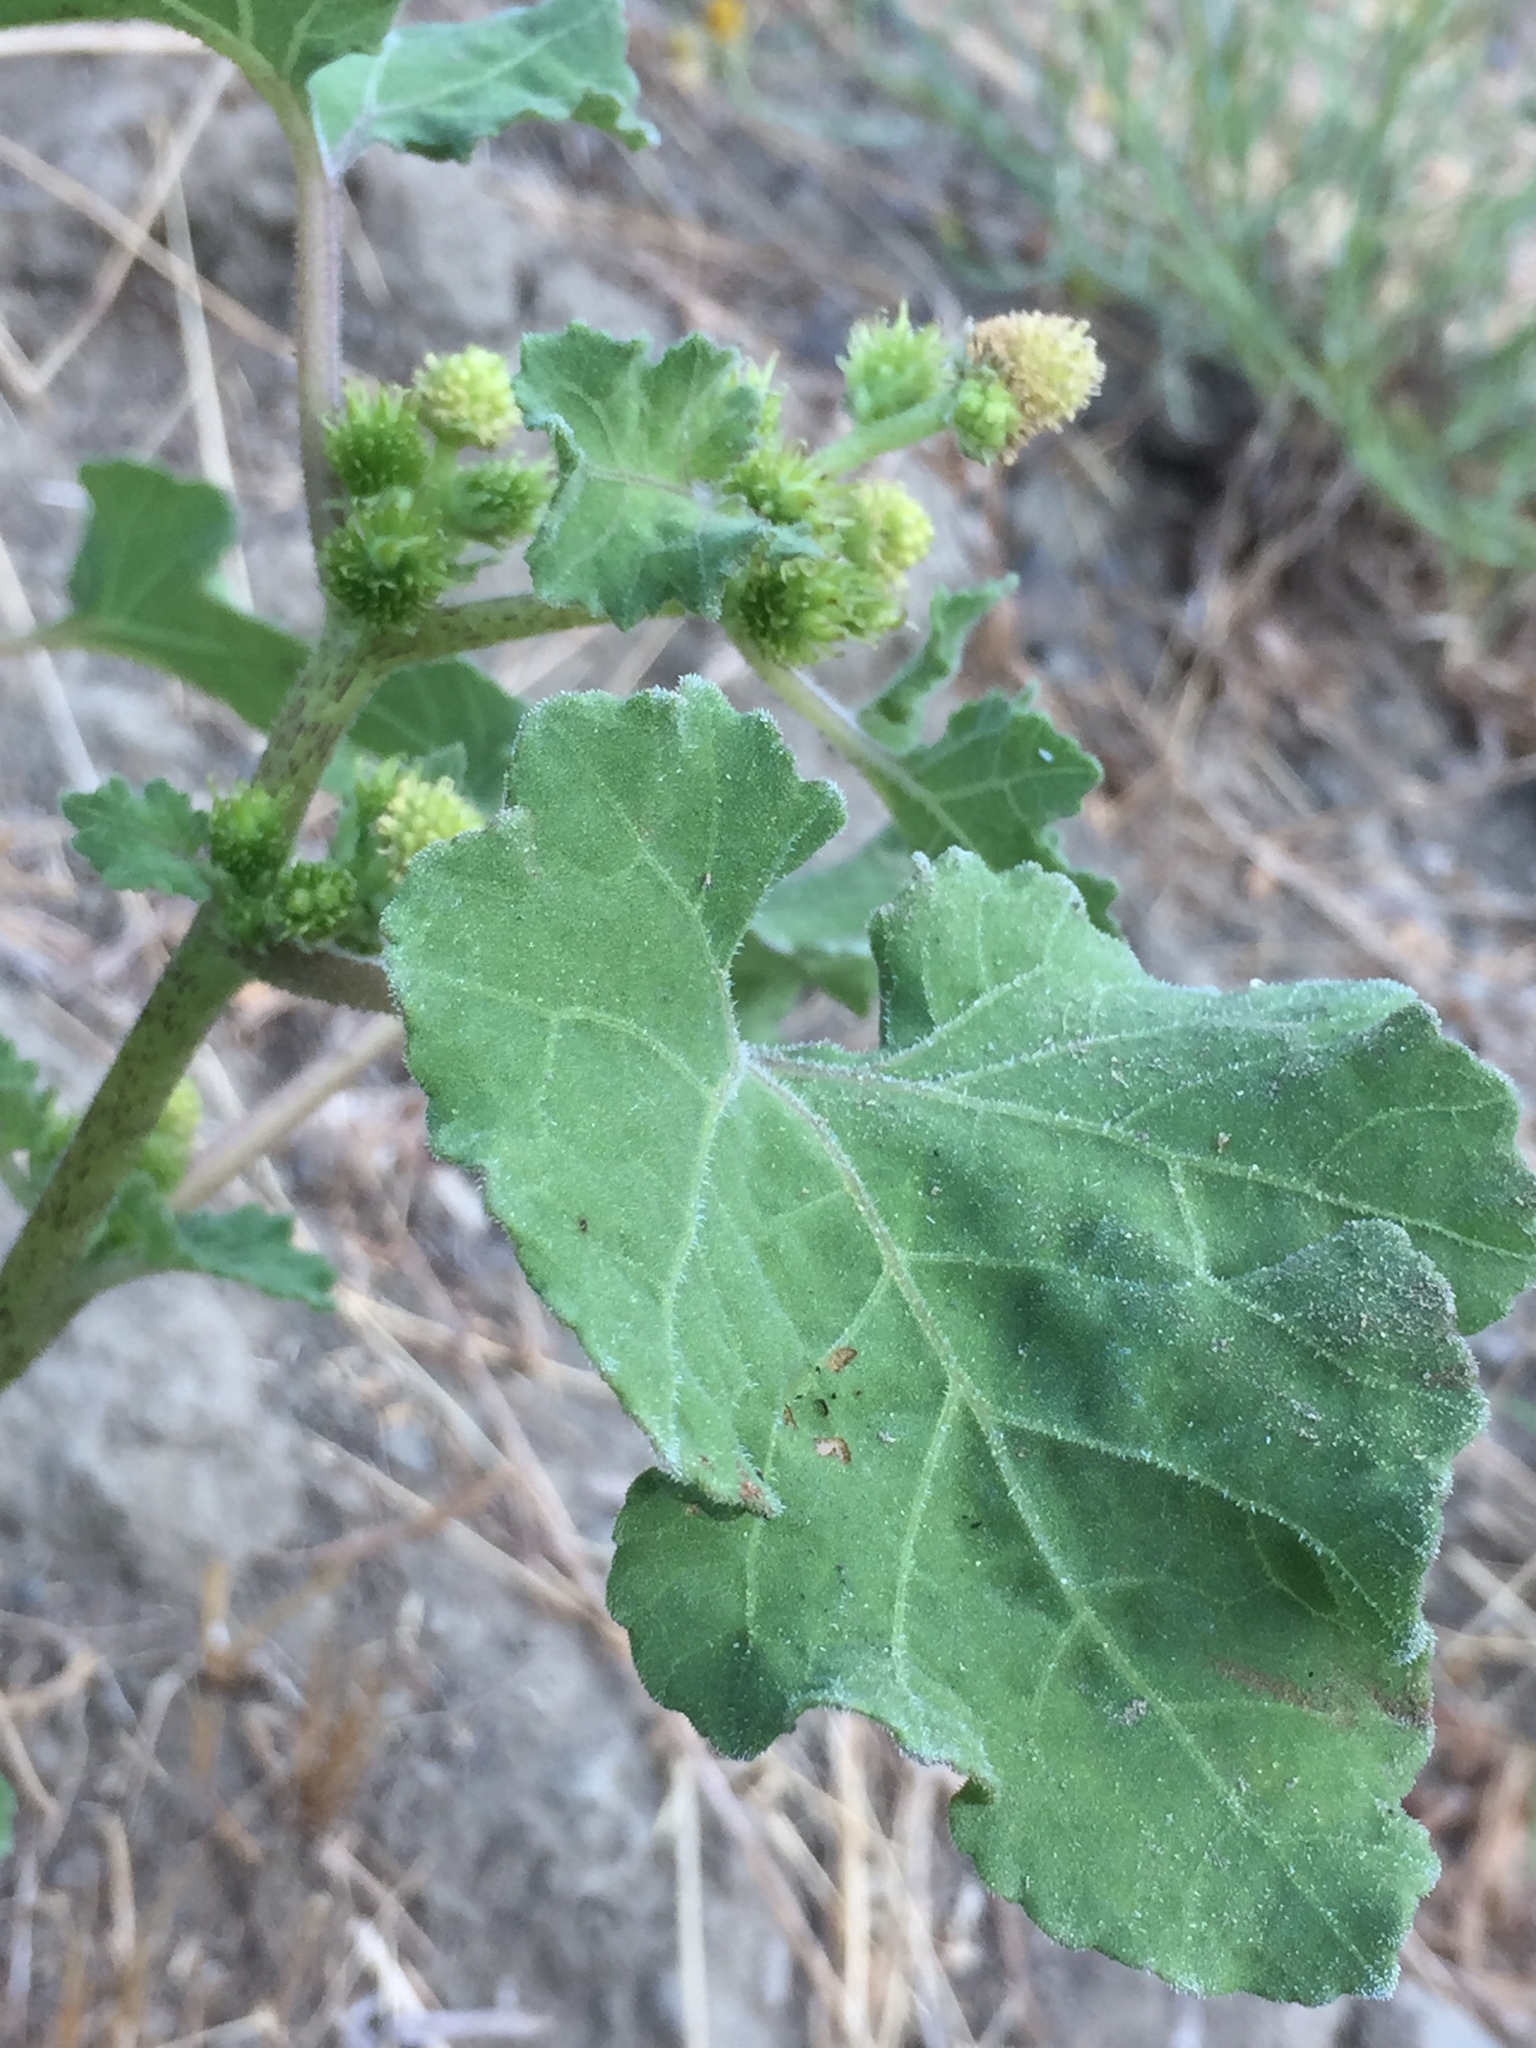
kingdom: Plantae
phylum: Tracheophyta
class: Magnoliopsida
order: Asterales
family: Asteraceae
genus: Xanthium
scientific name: Xanthium strumarium
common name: Rough cocklebur
